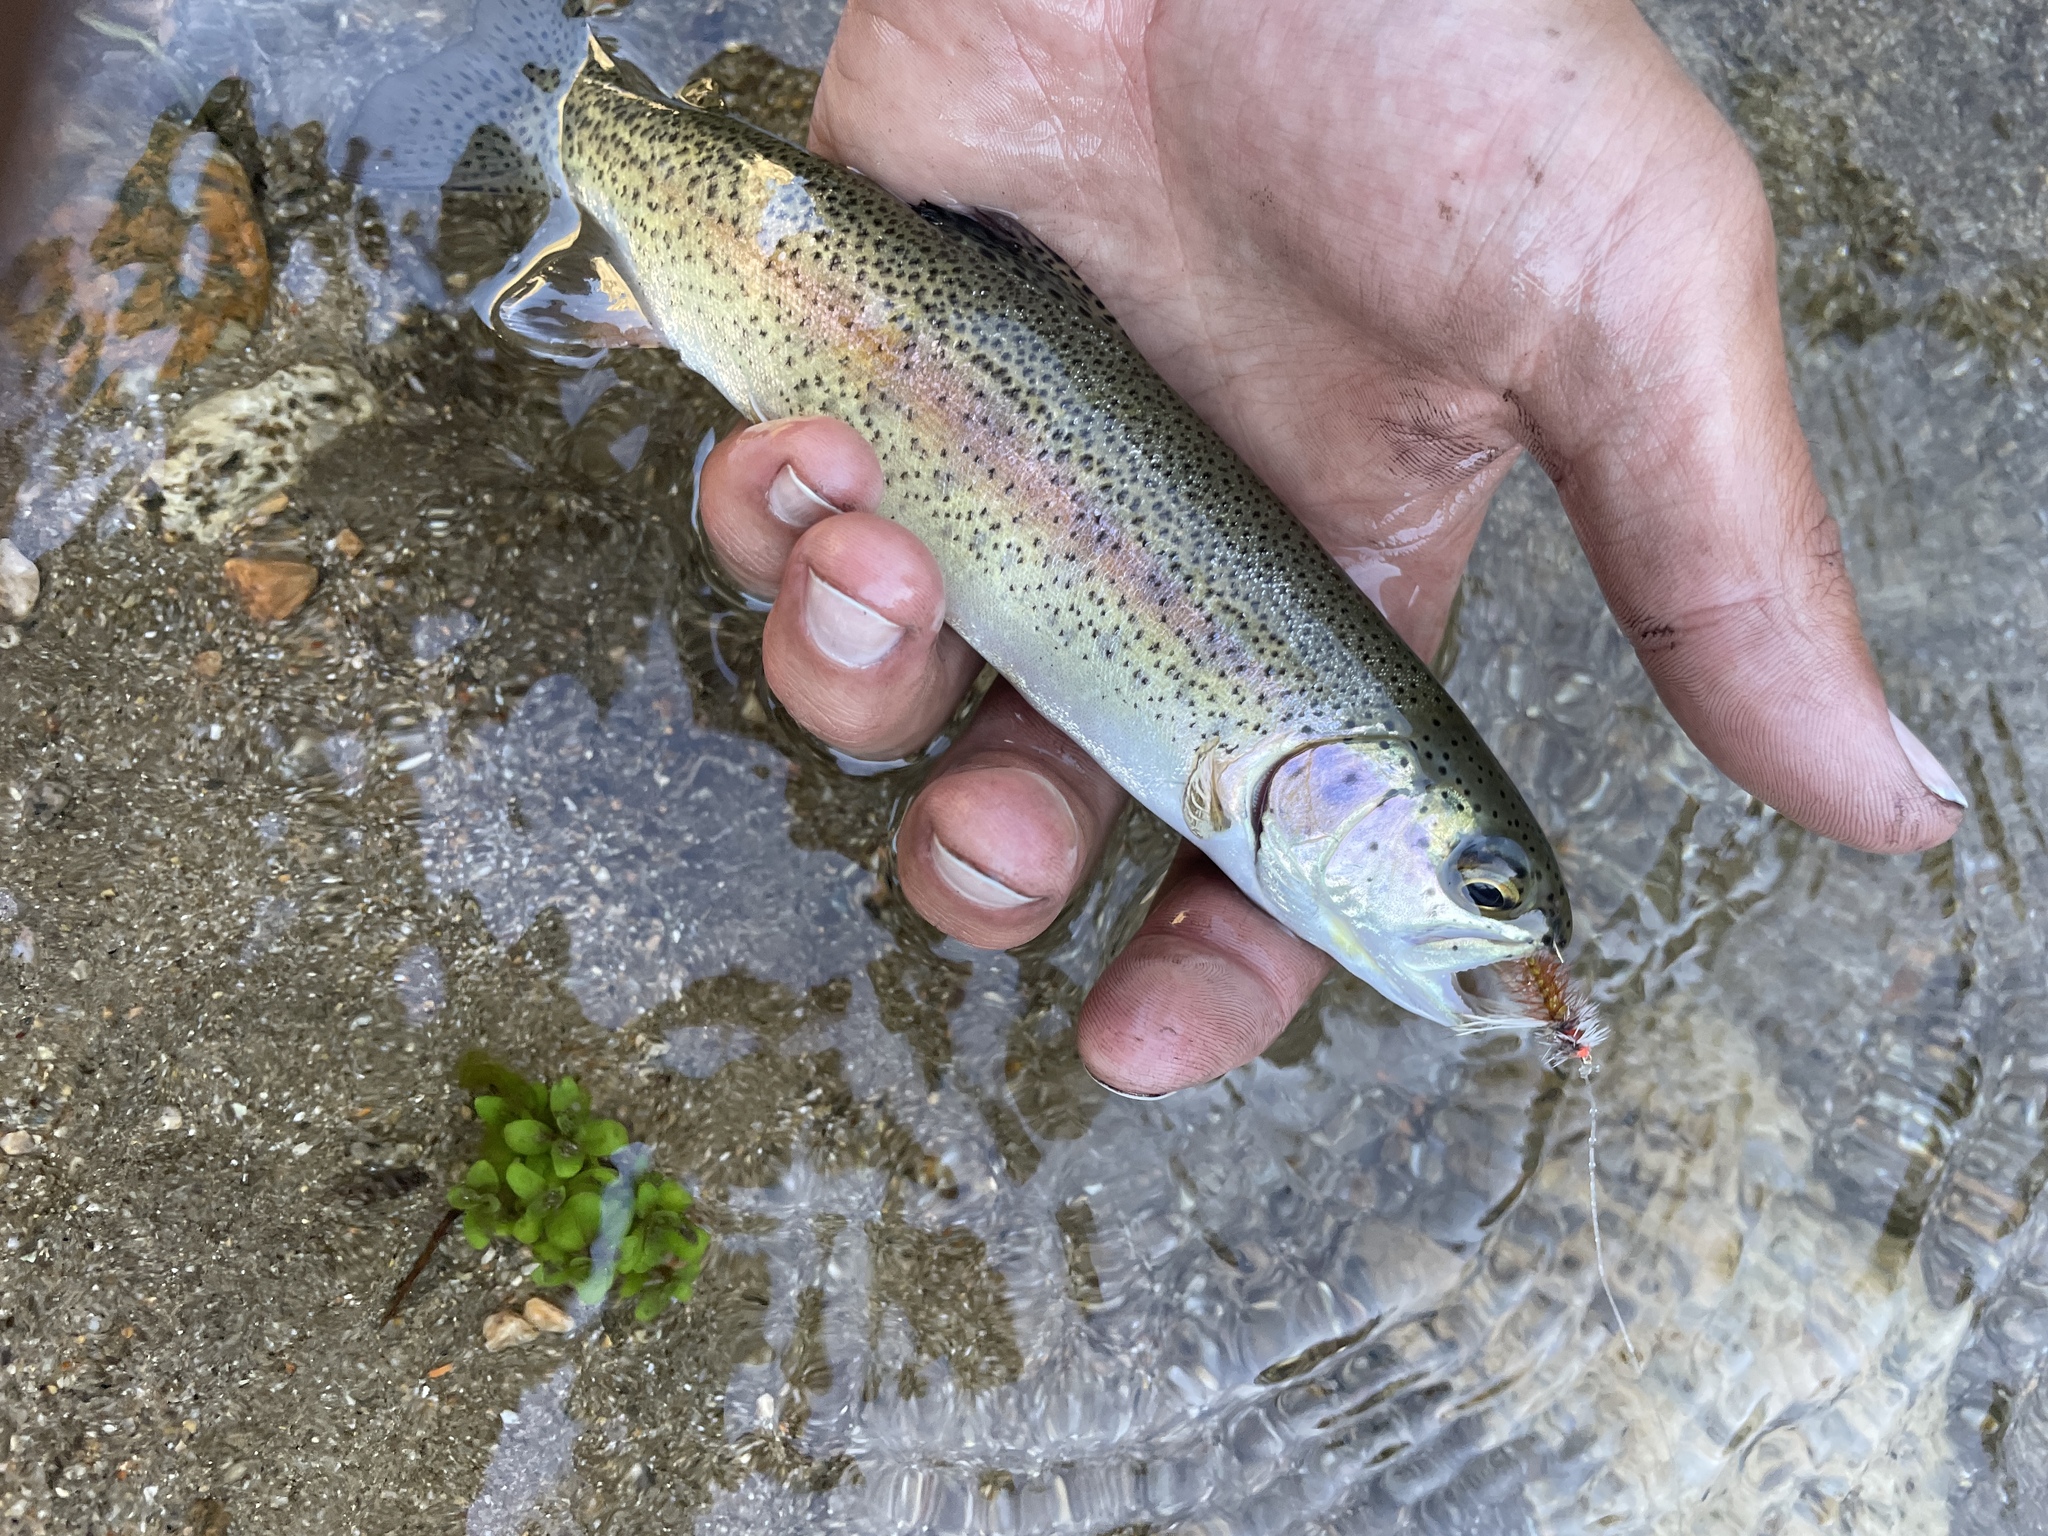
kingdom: Animalia
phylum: Chordata
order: Salmoniformes
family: Salmonidae
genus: Oncorhynchus
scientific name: Oncorhynchus mykiss
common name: Rainbow trout
